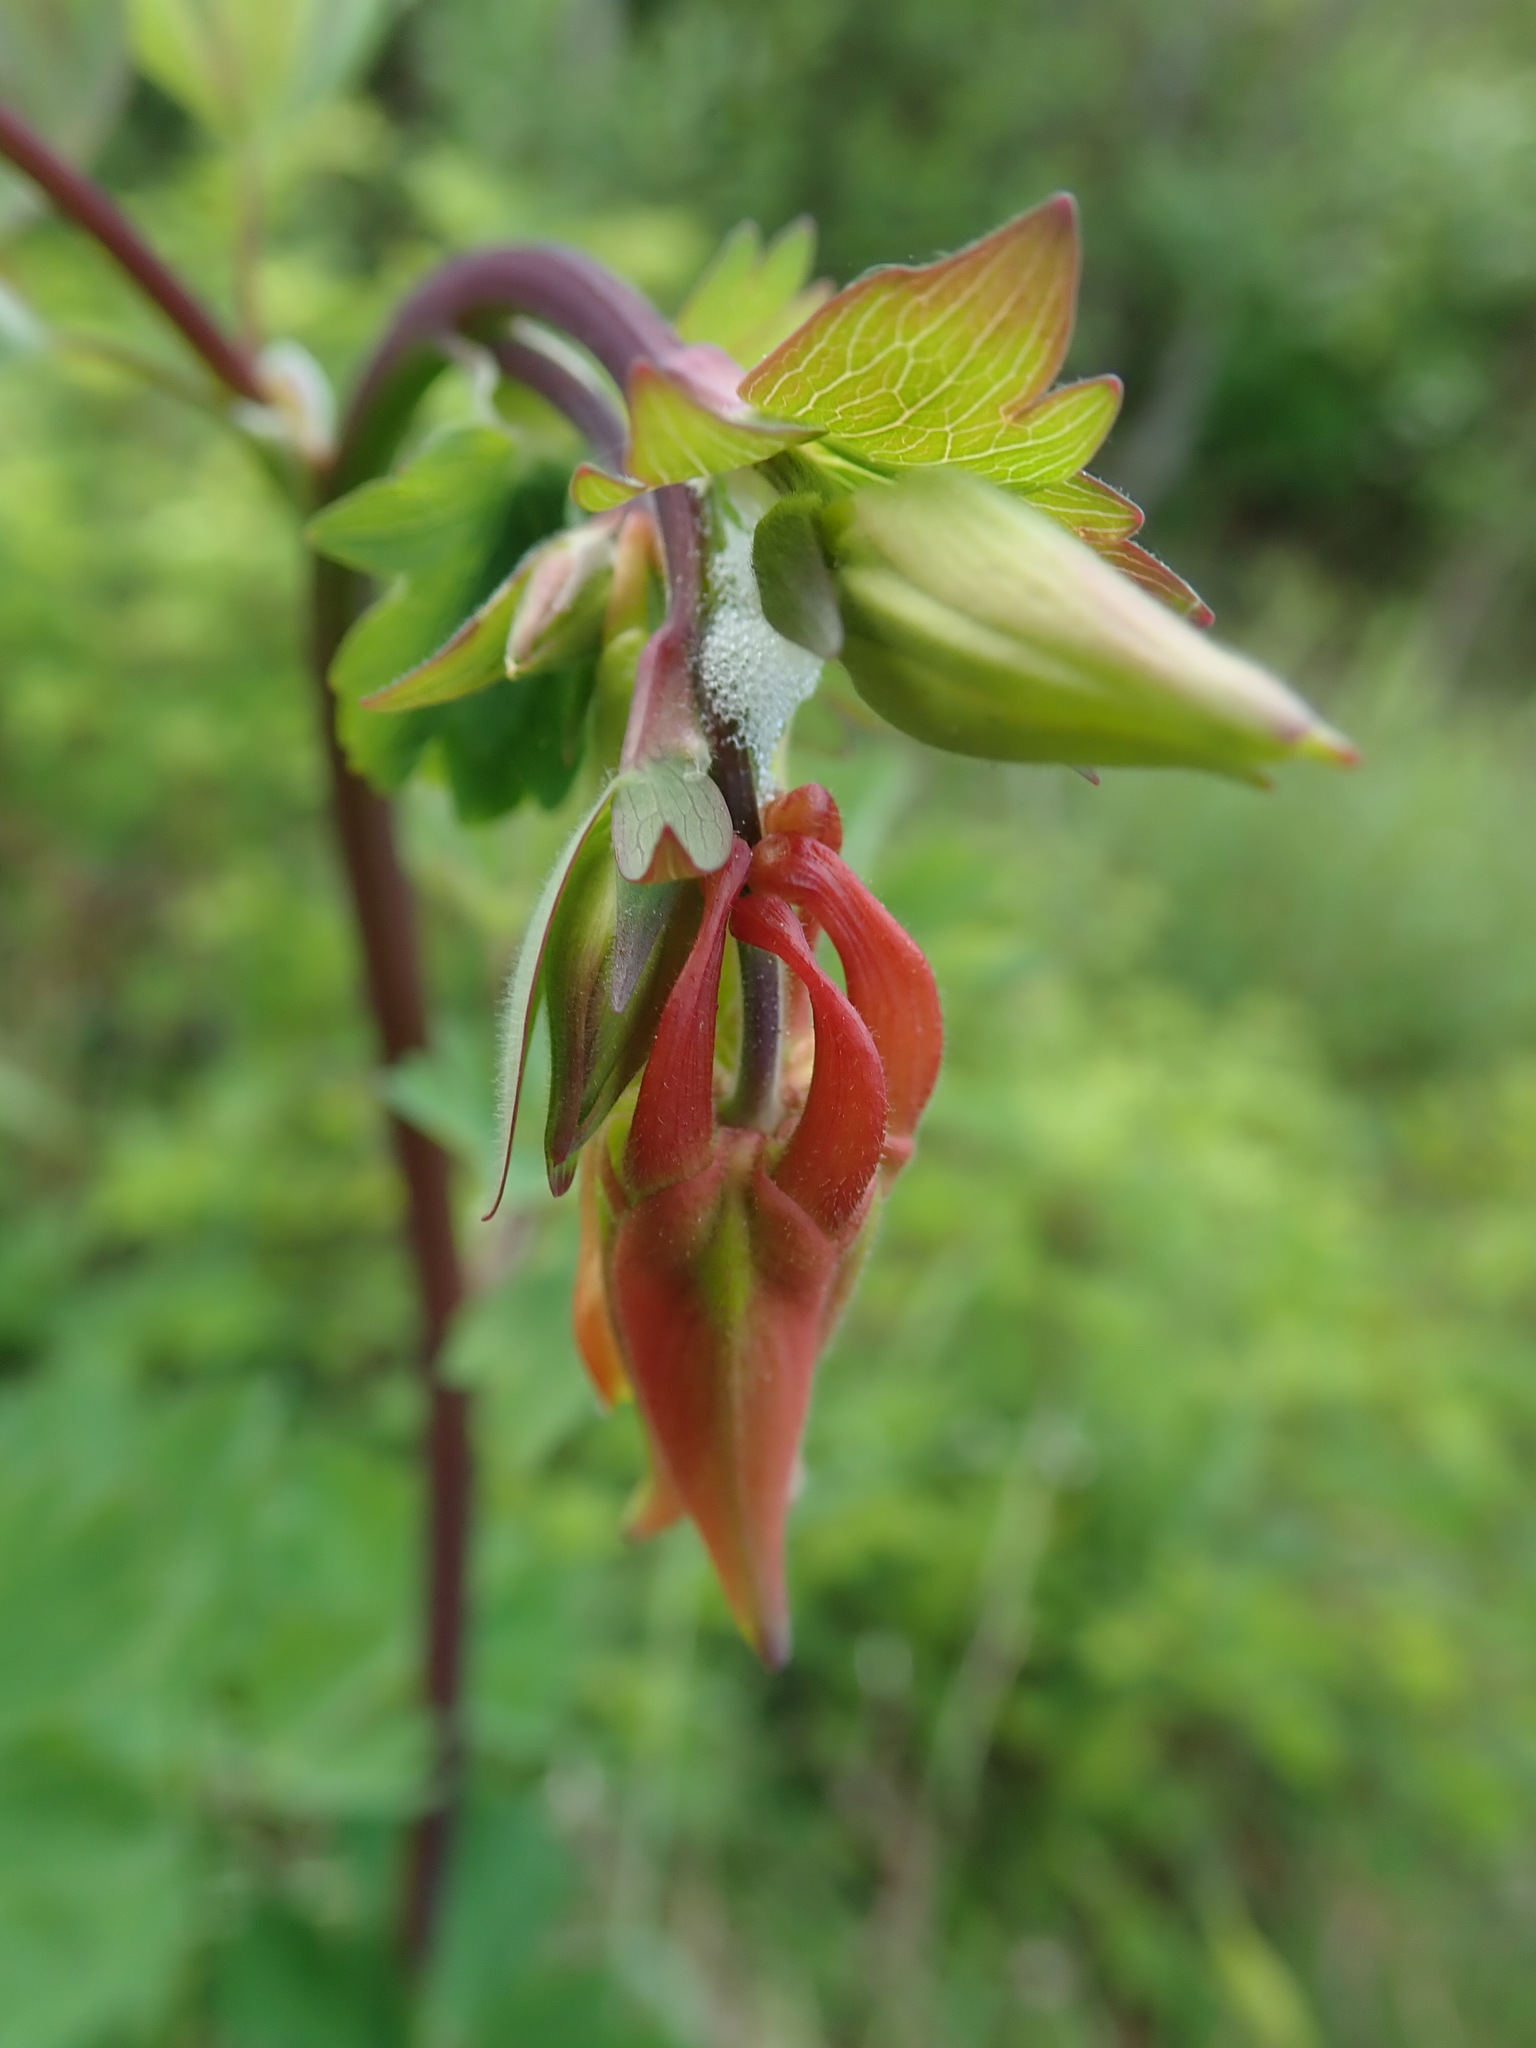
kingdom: Plantae
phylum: Tracheophyta
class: Magnoliopsida
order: Ranunculales
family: Ranunculaceae
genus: Aquilegia
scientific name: Aquilegia formosa
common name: Sitka columbine
